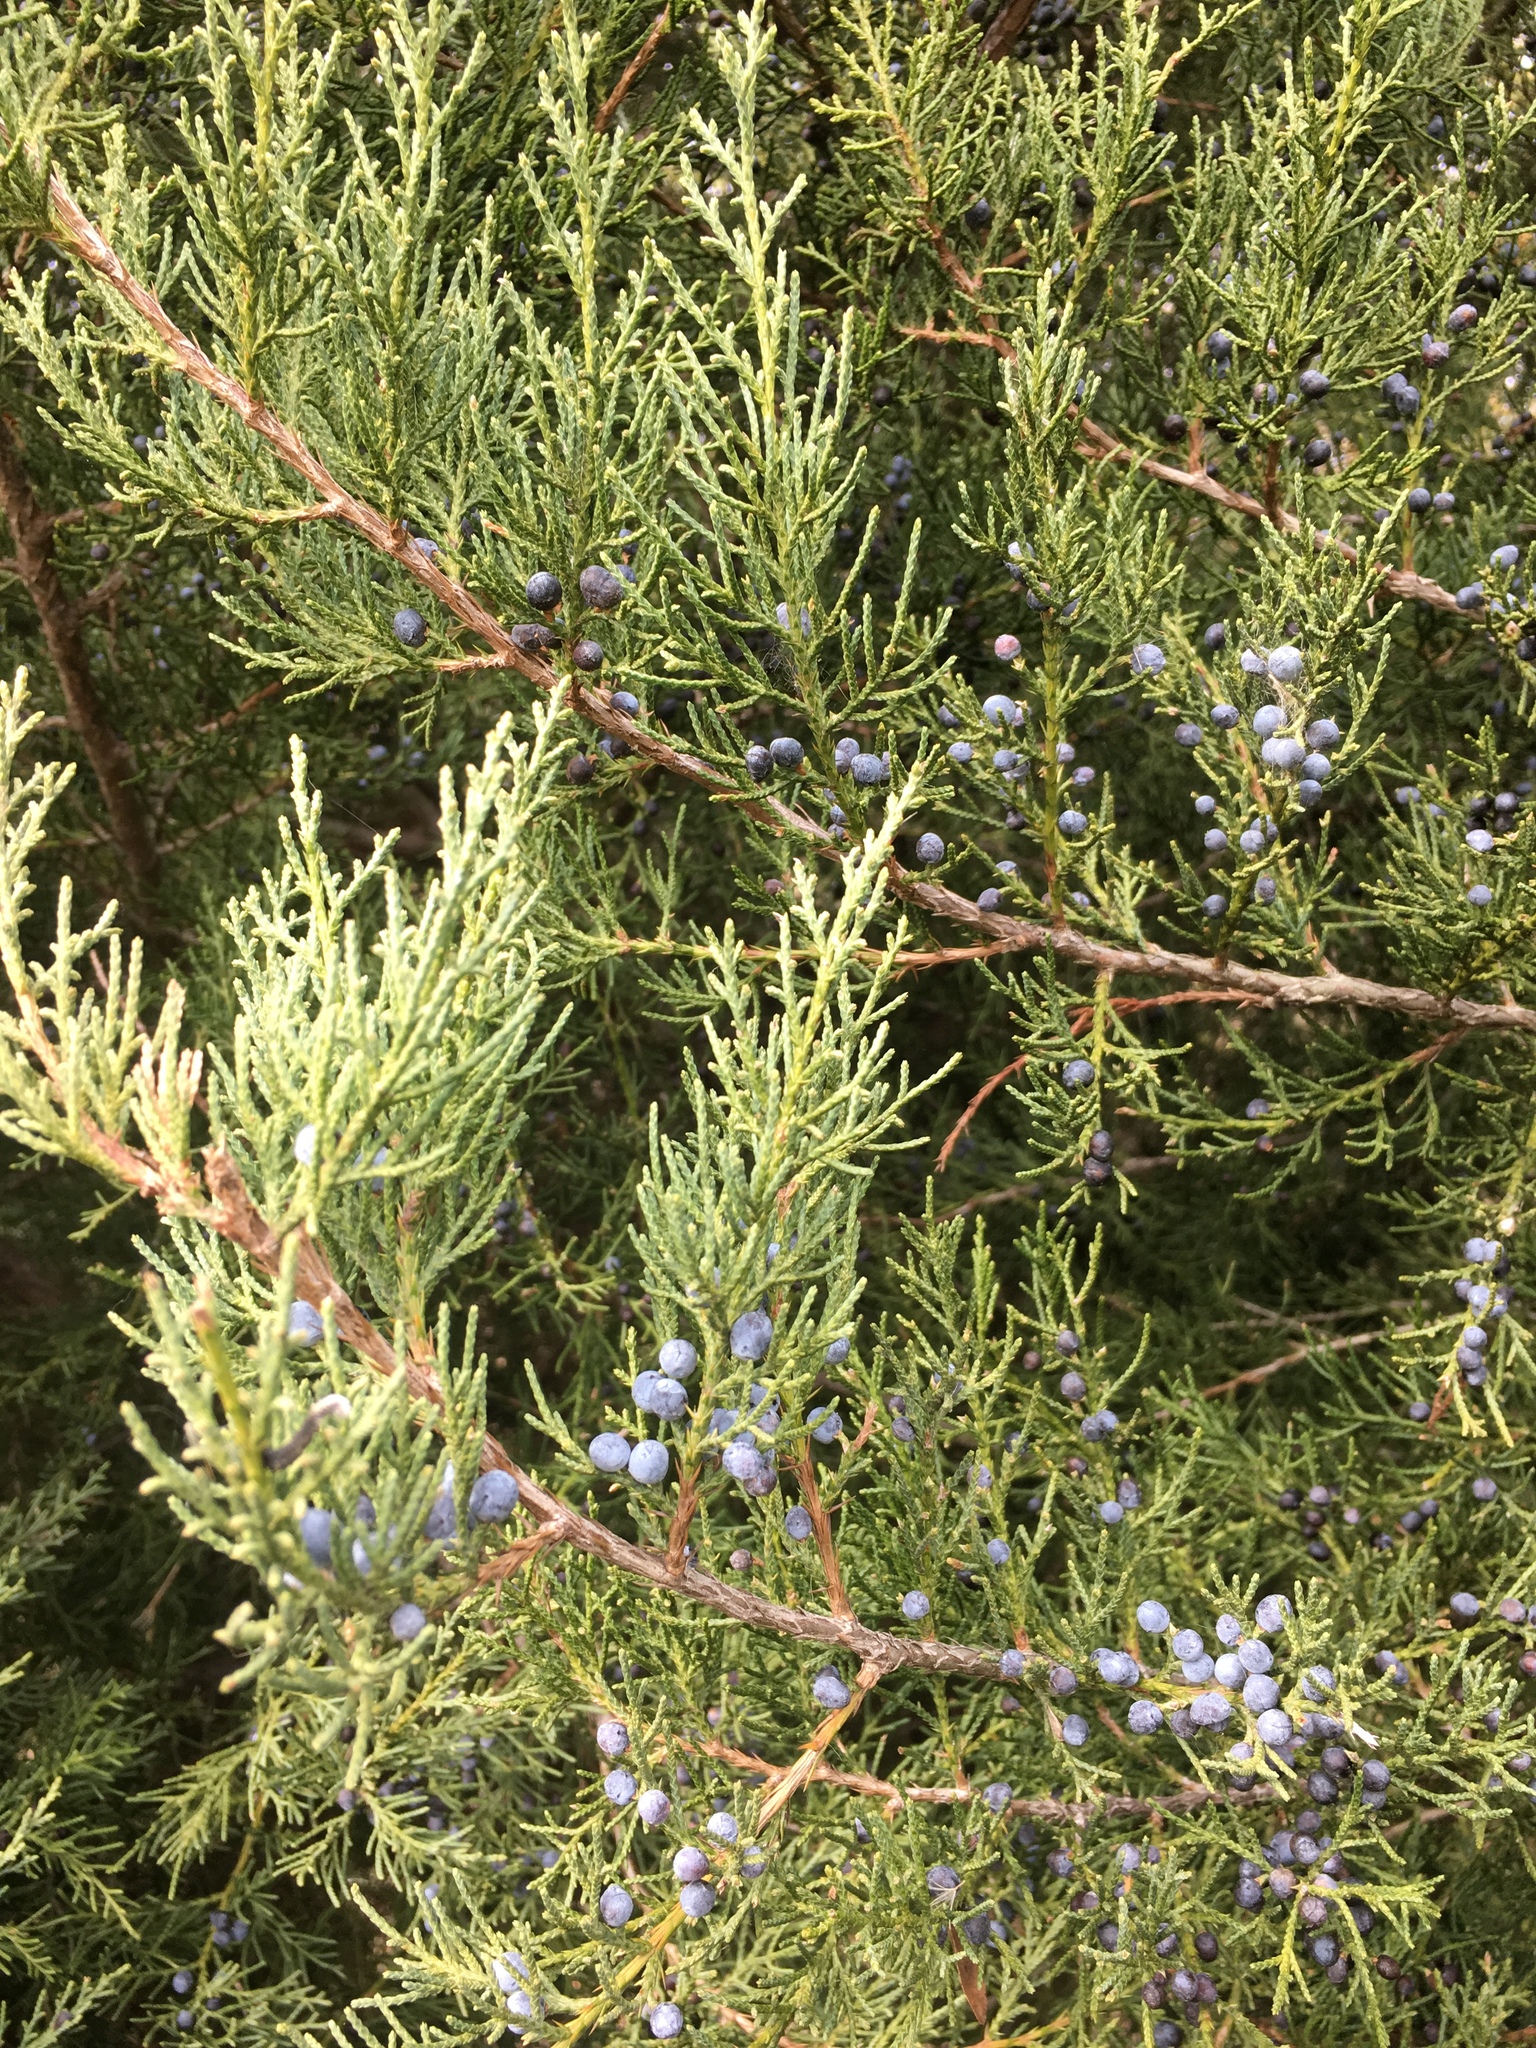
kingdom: Plantae
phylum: Tracheophyta
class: Pinopsida
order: Pinales
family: Cupressaceae
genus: Juniperus
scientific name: Juniperus virginiana
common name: Red juniper
